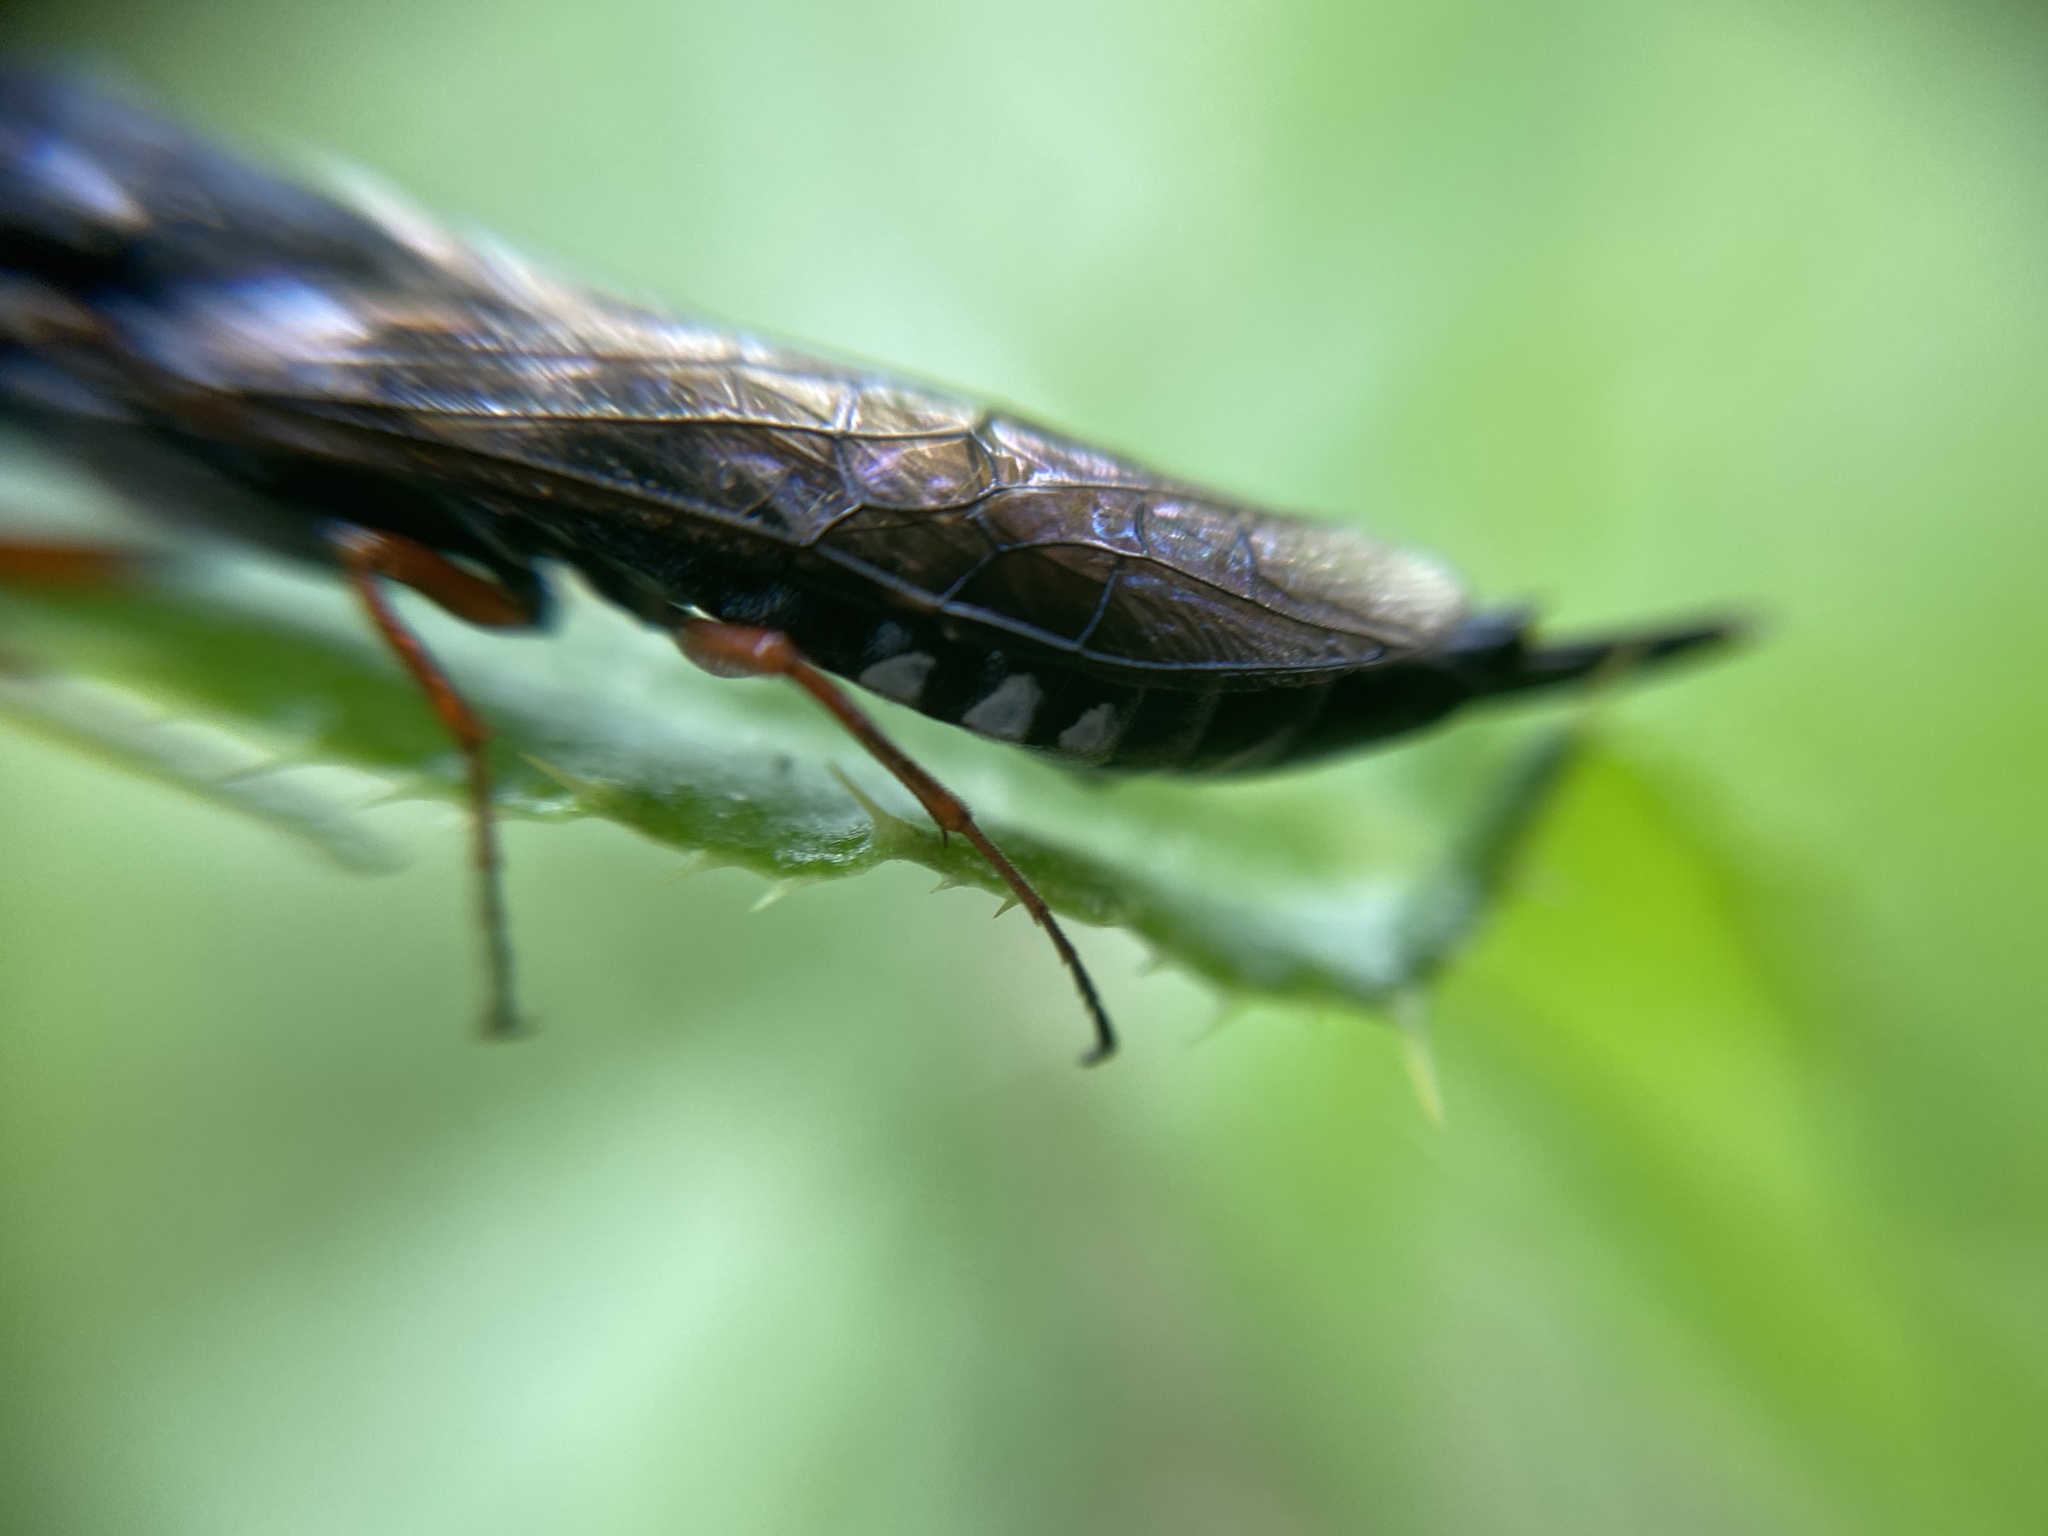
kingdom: Animalia
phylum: Arthropoda
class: Insecta
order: Hymenoptera
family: Xiphydriidae
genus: Xiphydria
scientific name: Xiphydria camelus
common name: Alder wood-wasp
